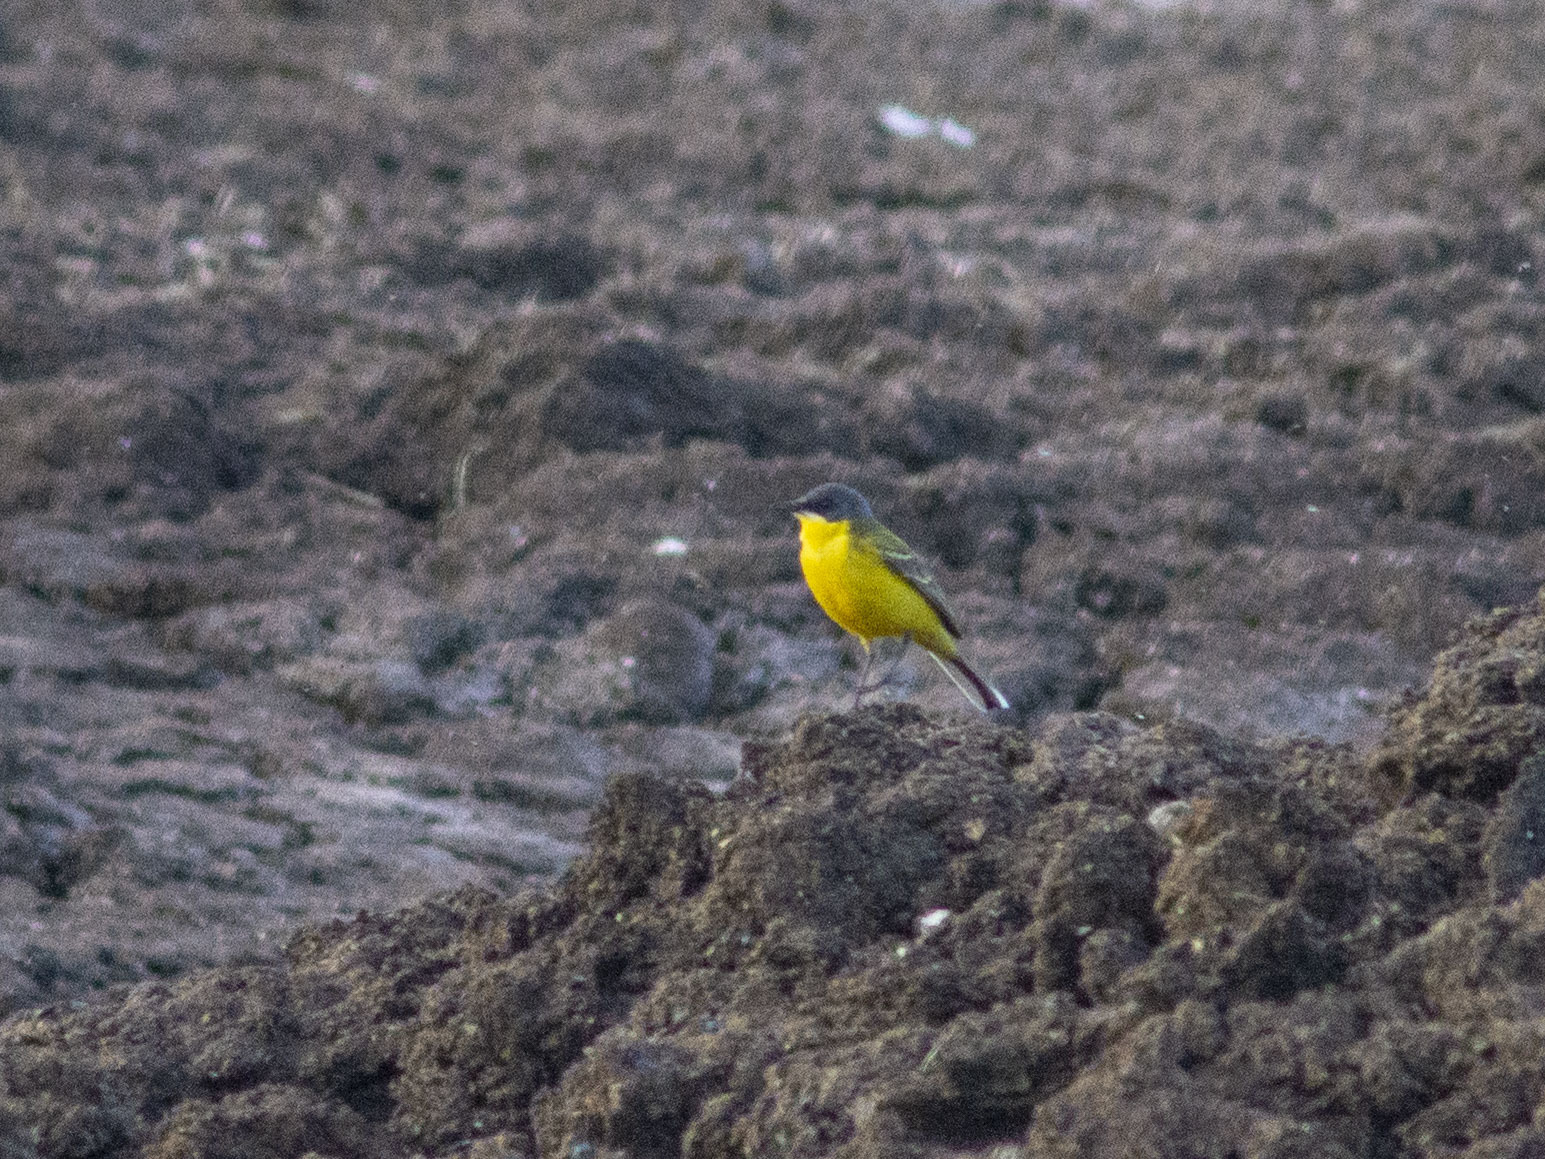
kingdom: Animalia
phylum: Chordata
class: Aves
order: Passeriformes
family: Motacillidae
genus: Motacilla
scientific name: Motacilla flava
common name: Western yellow wagtail
